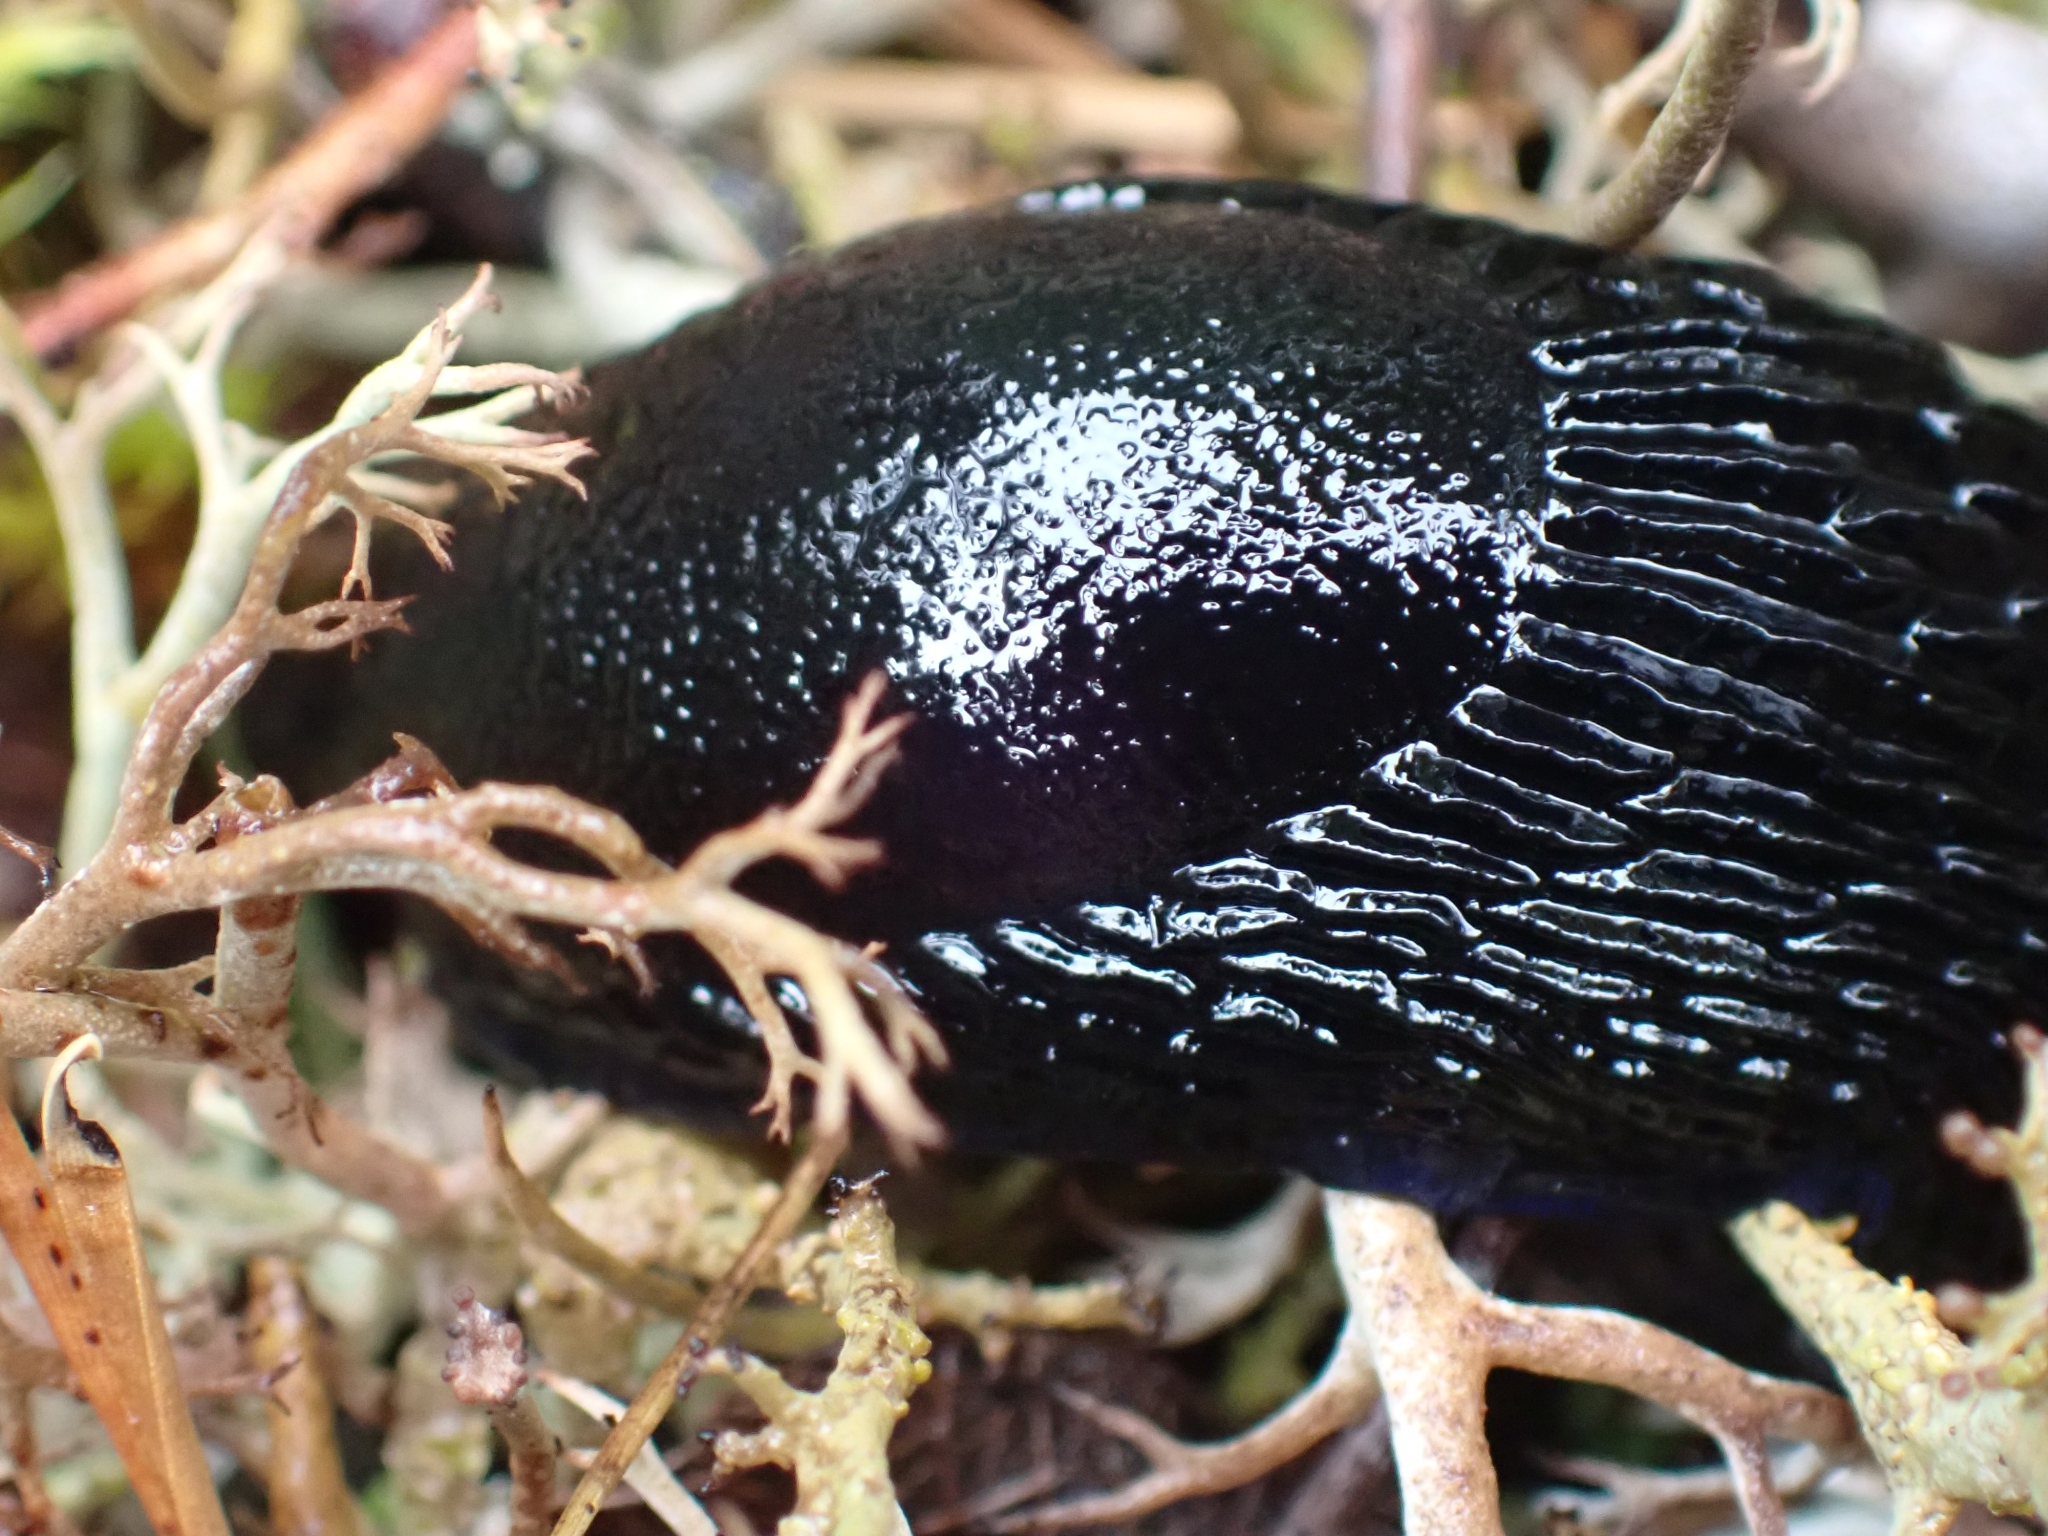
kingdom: Animalia
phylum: Mollusca
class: Gastropoda
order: Stylommatophora
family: Arionidae
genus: Arion
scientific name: Arion
